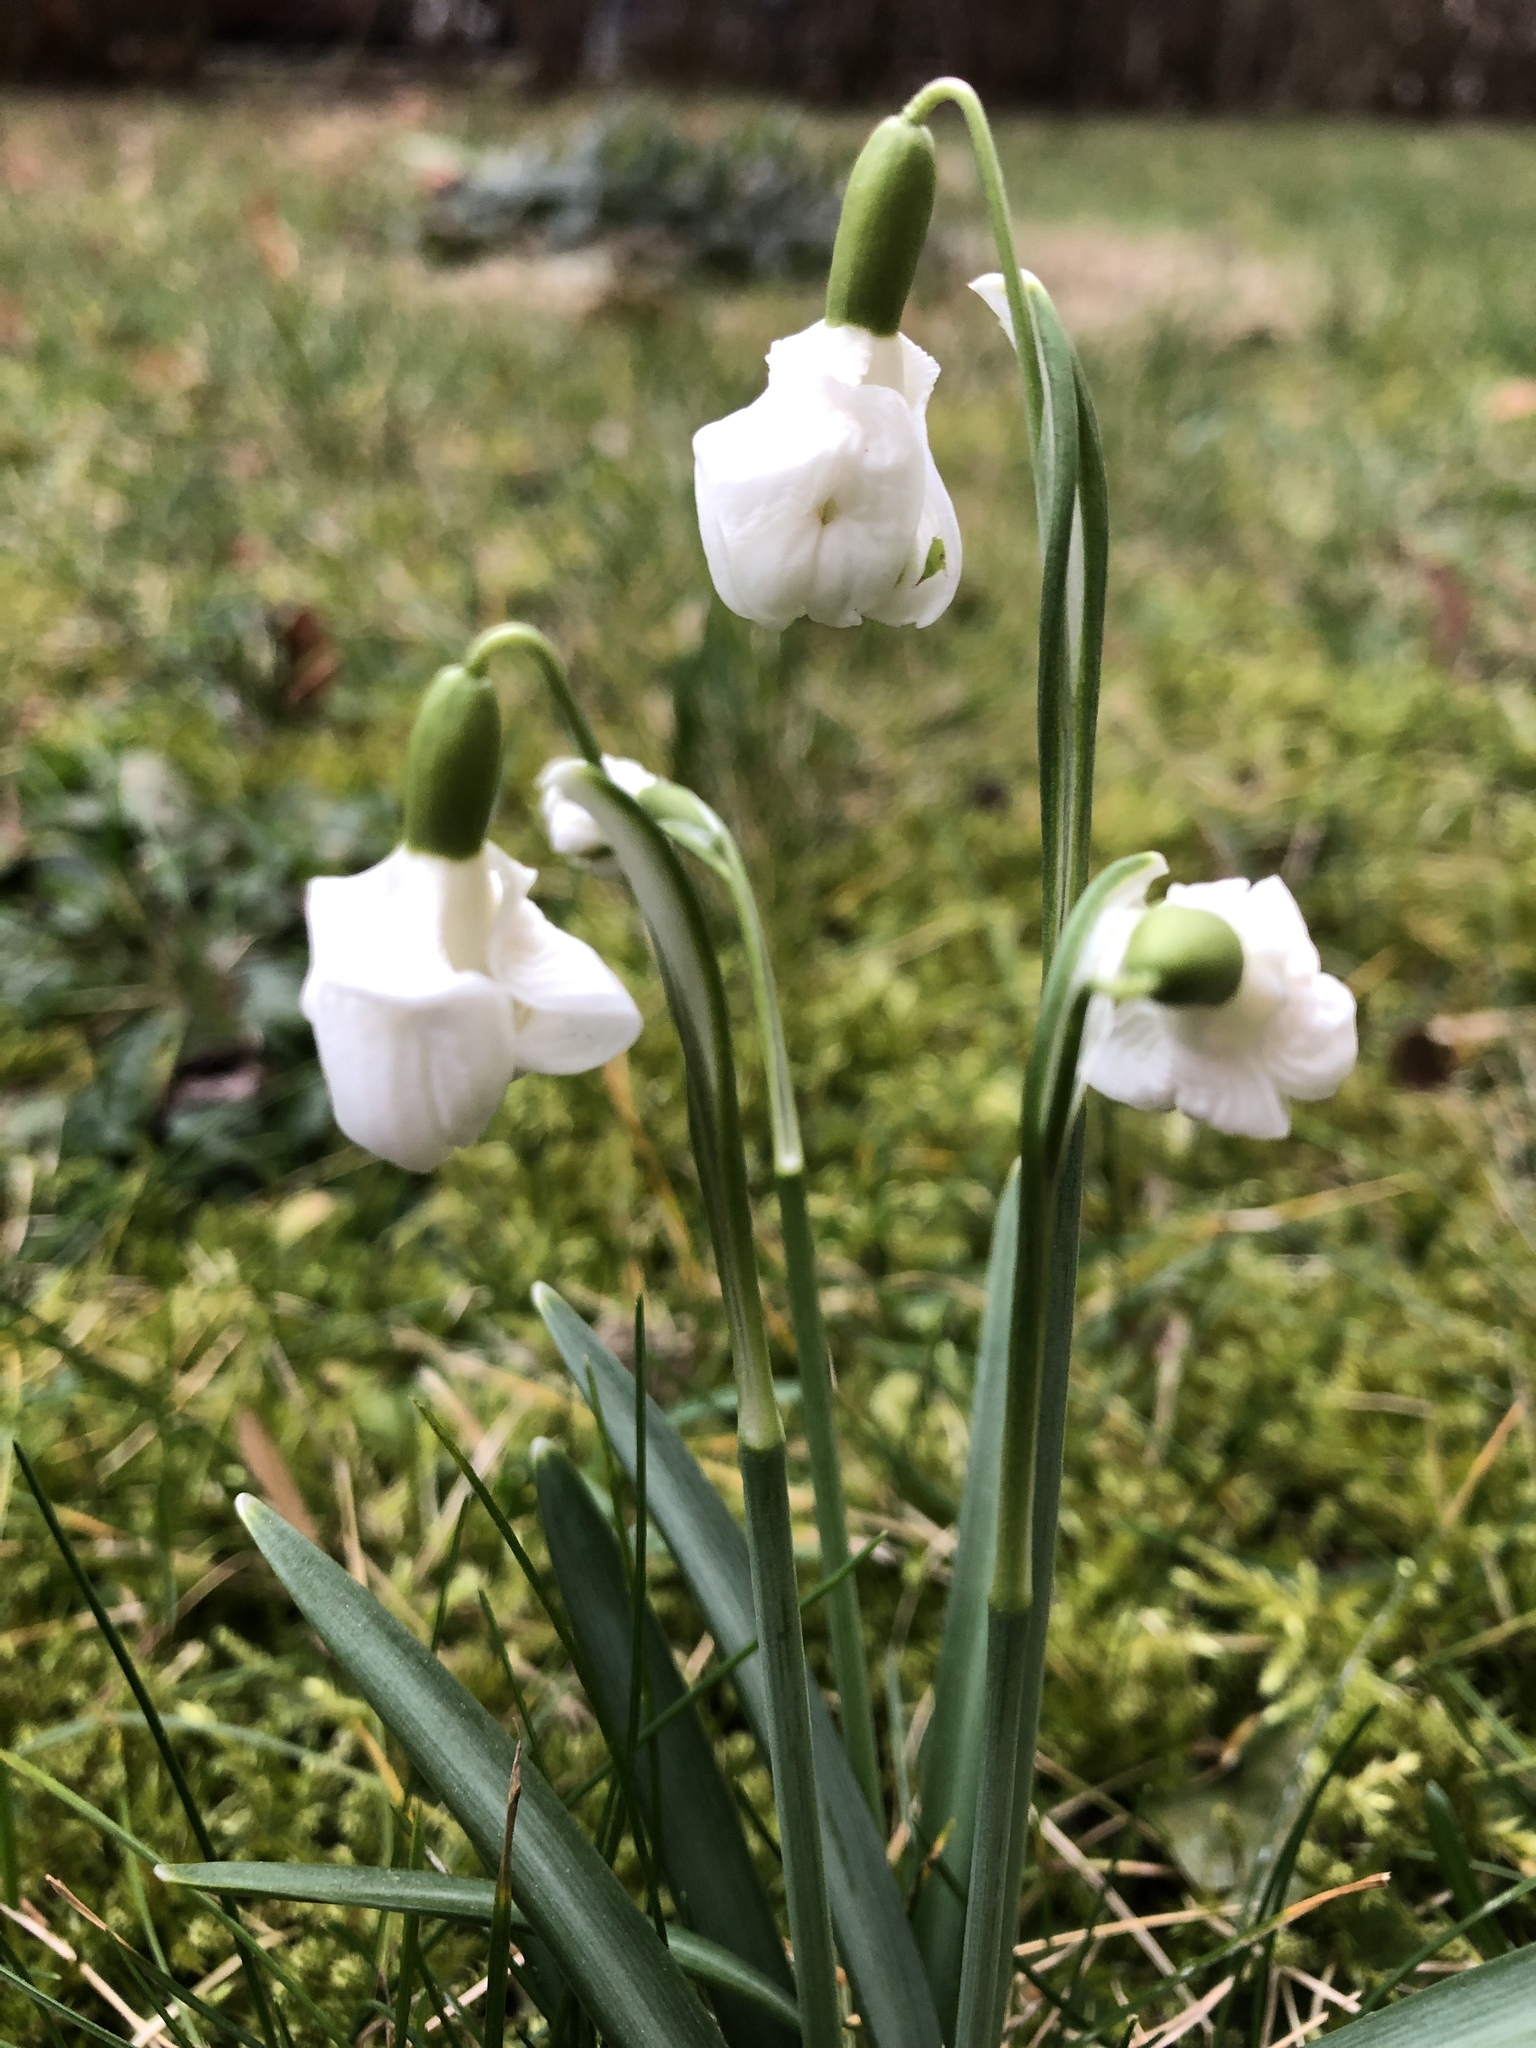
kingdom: Plantae
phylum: Tracheophyta
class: Liliopsida
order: Asparagales
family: Amaryllidaceae
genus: Galanthus
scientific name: Galanthus nivalis
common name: Snowdrop
